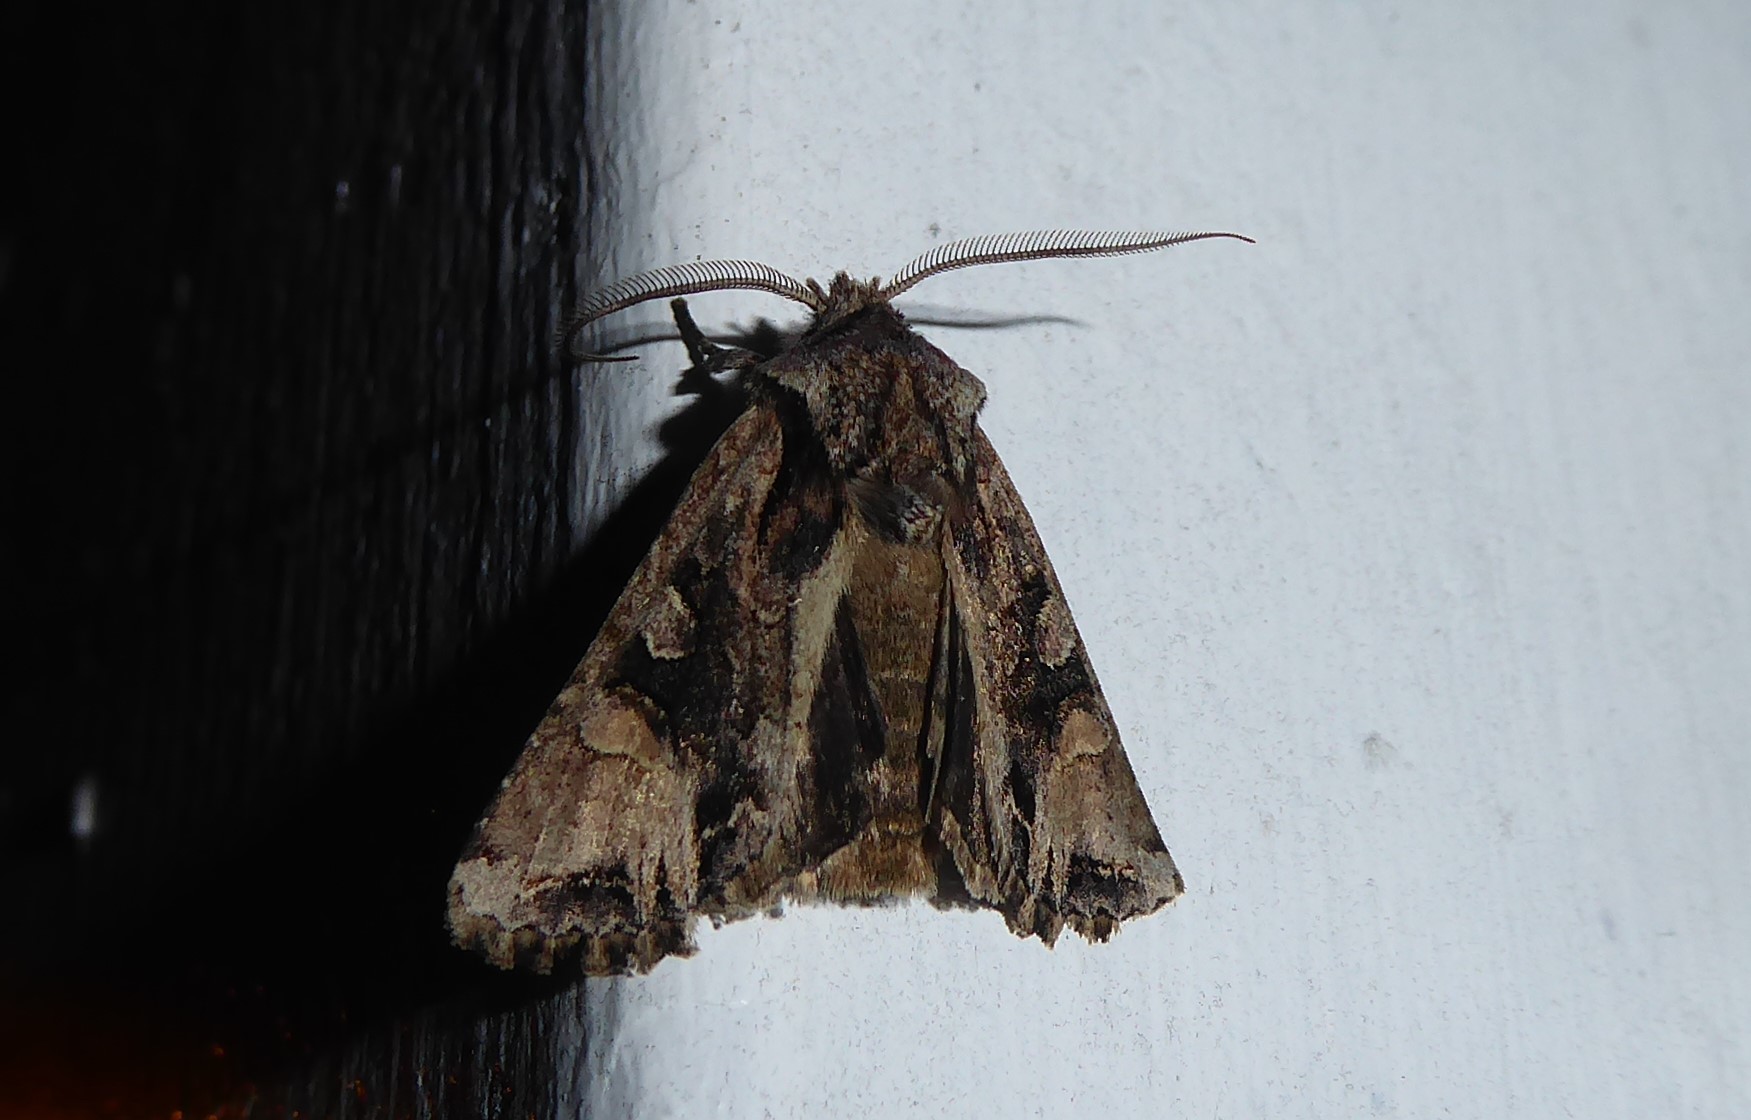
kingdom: Animalia
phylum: Arthropoda
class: Insecta
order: Lepidoptera
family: Noctuidae
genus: Ichneutica
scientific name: Ichneutica
